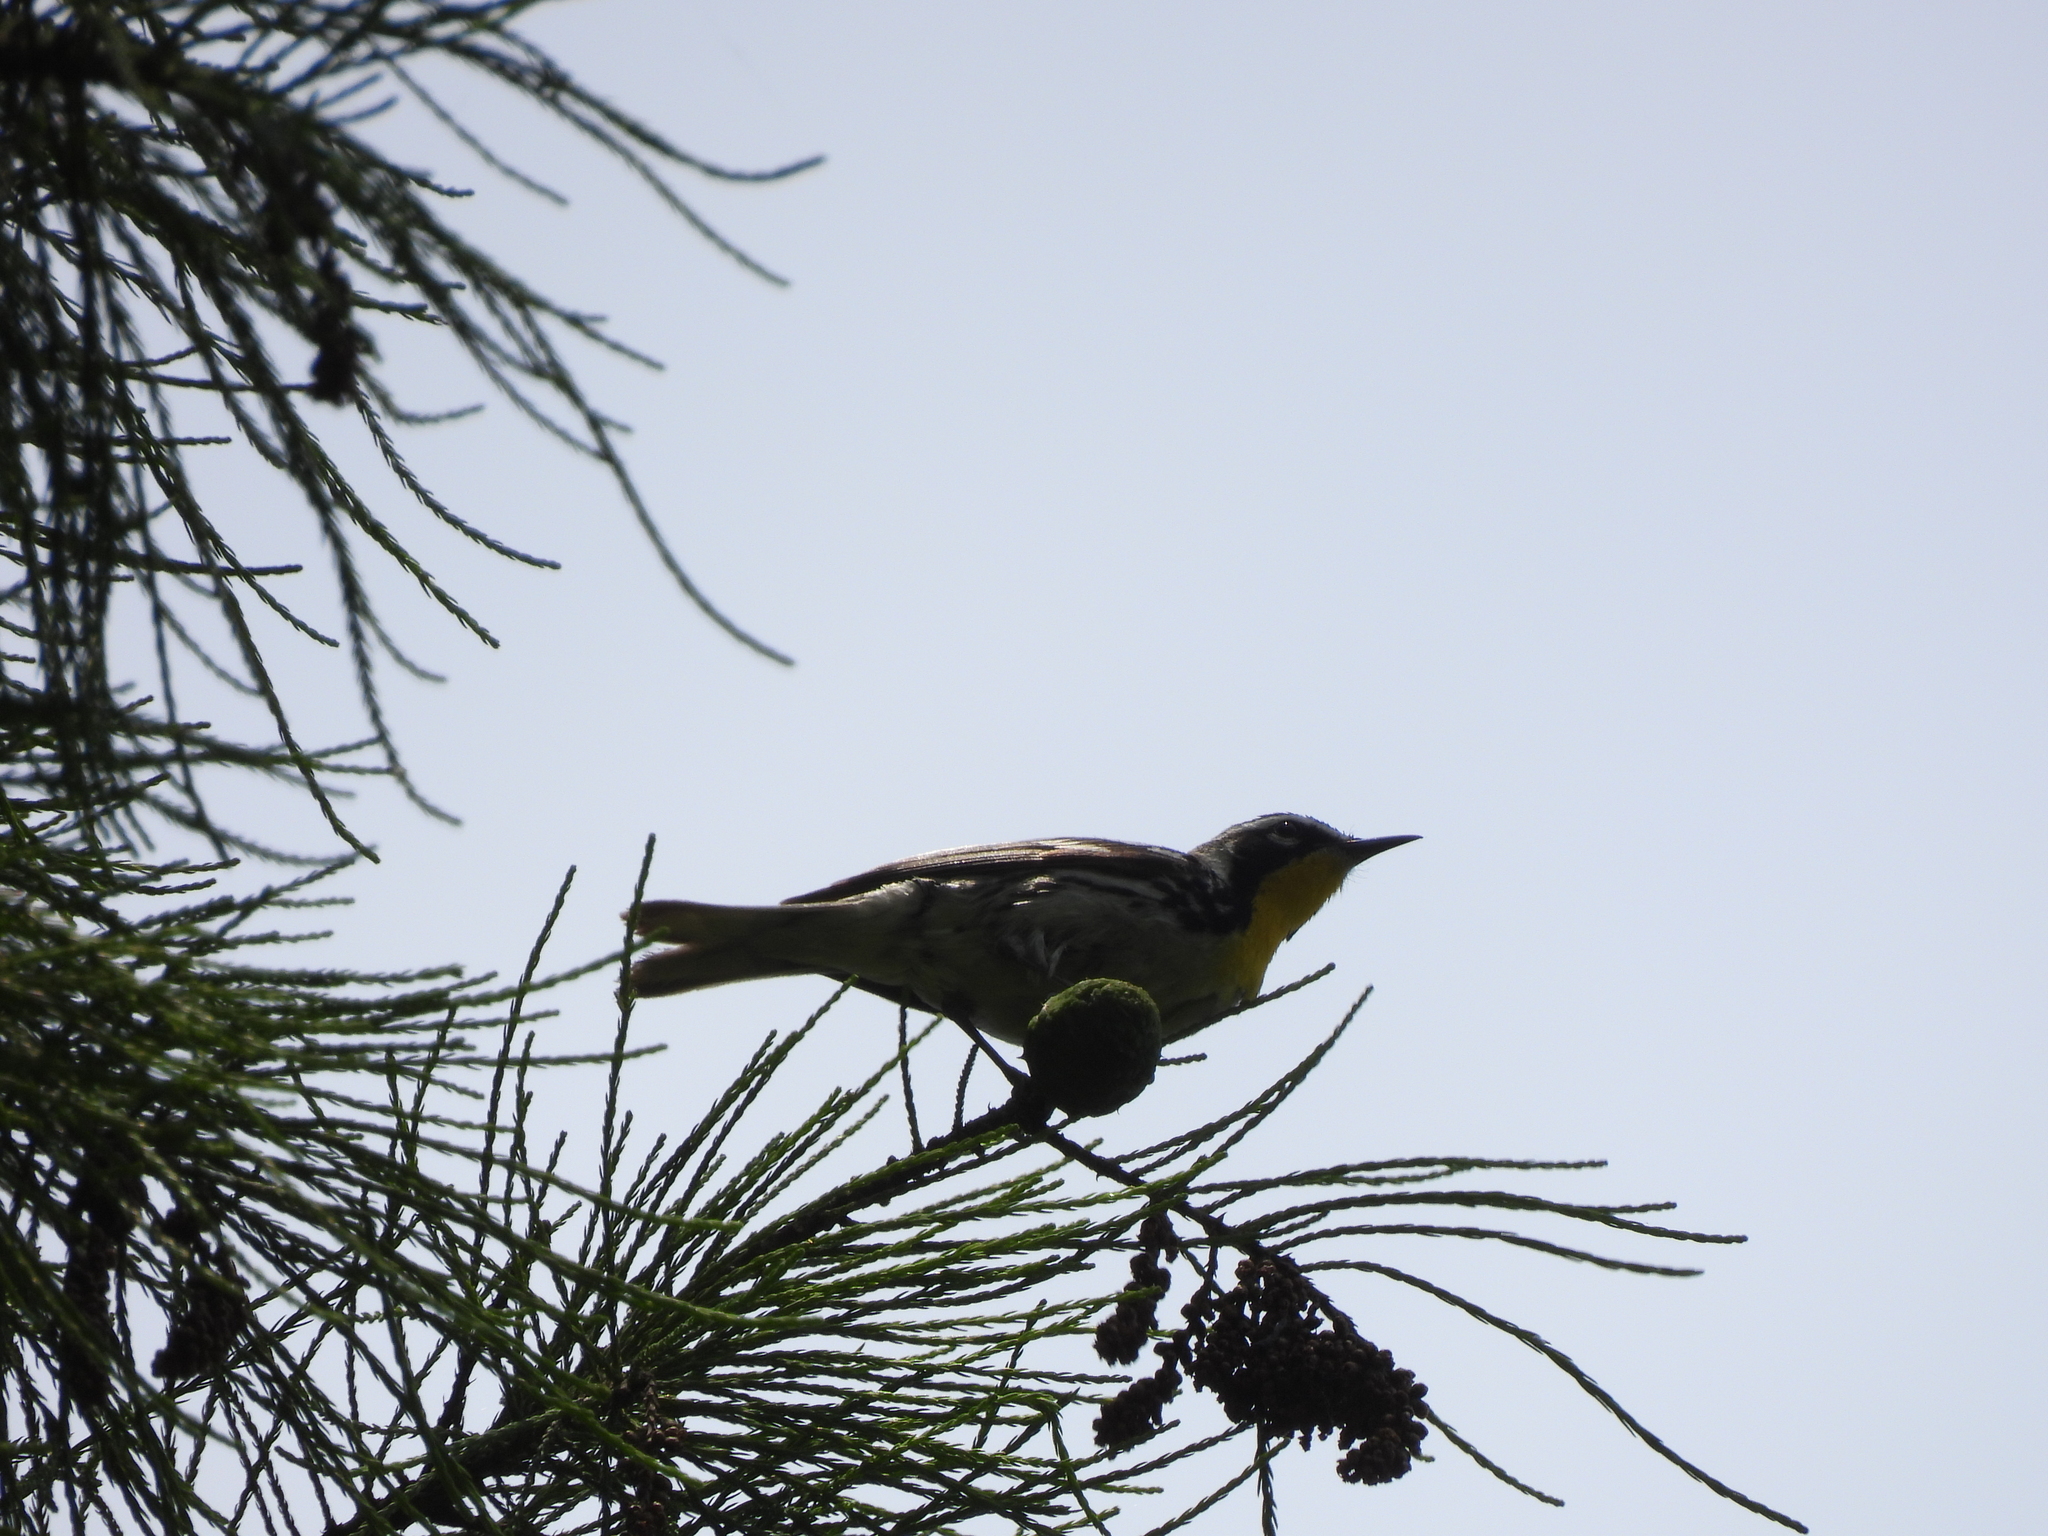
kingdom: Animalia
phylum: Chordata
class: Aves
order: Passeriformes
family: Parulidae
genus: Setophaga
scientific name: Setophaga dominica
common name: Yellow-throated warbler
